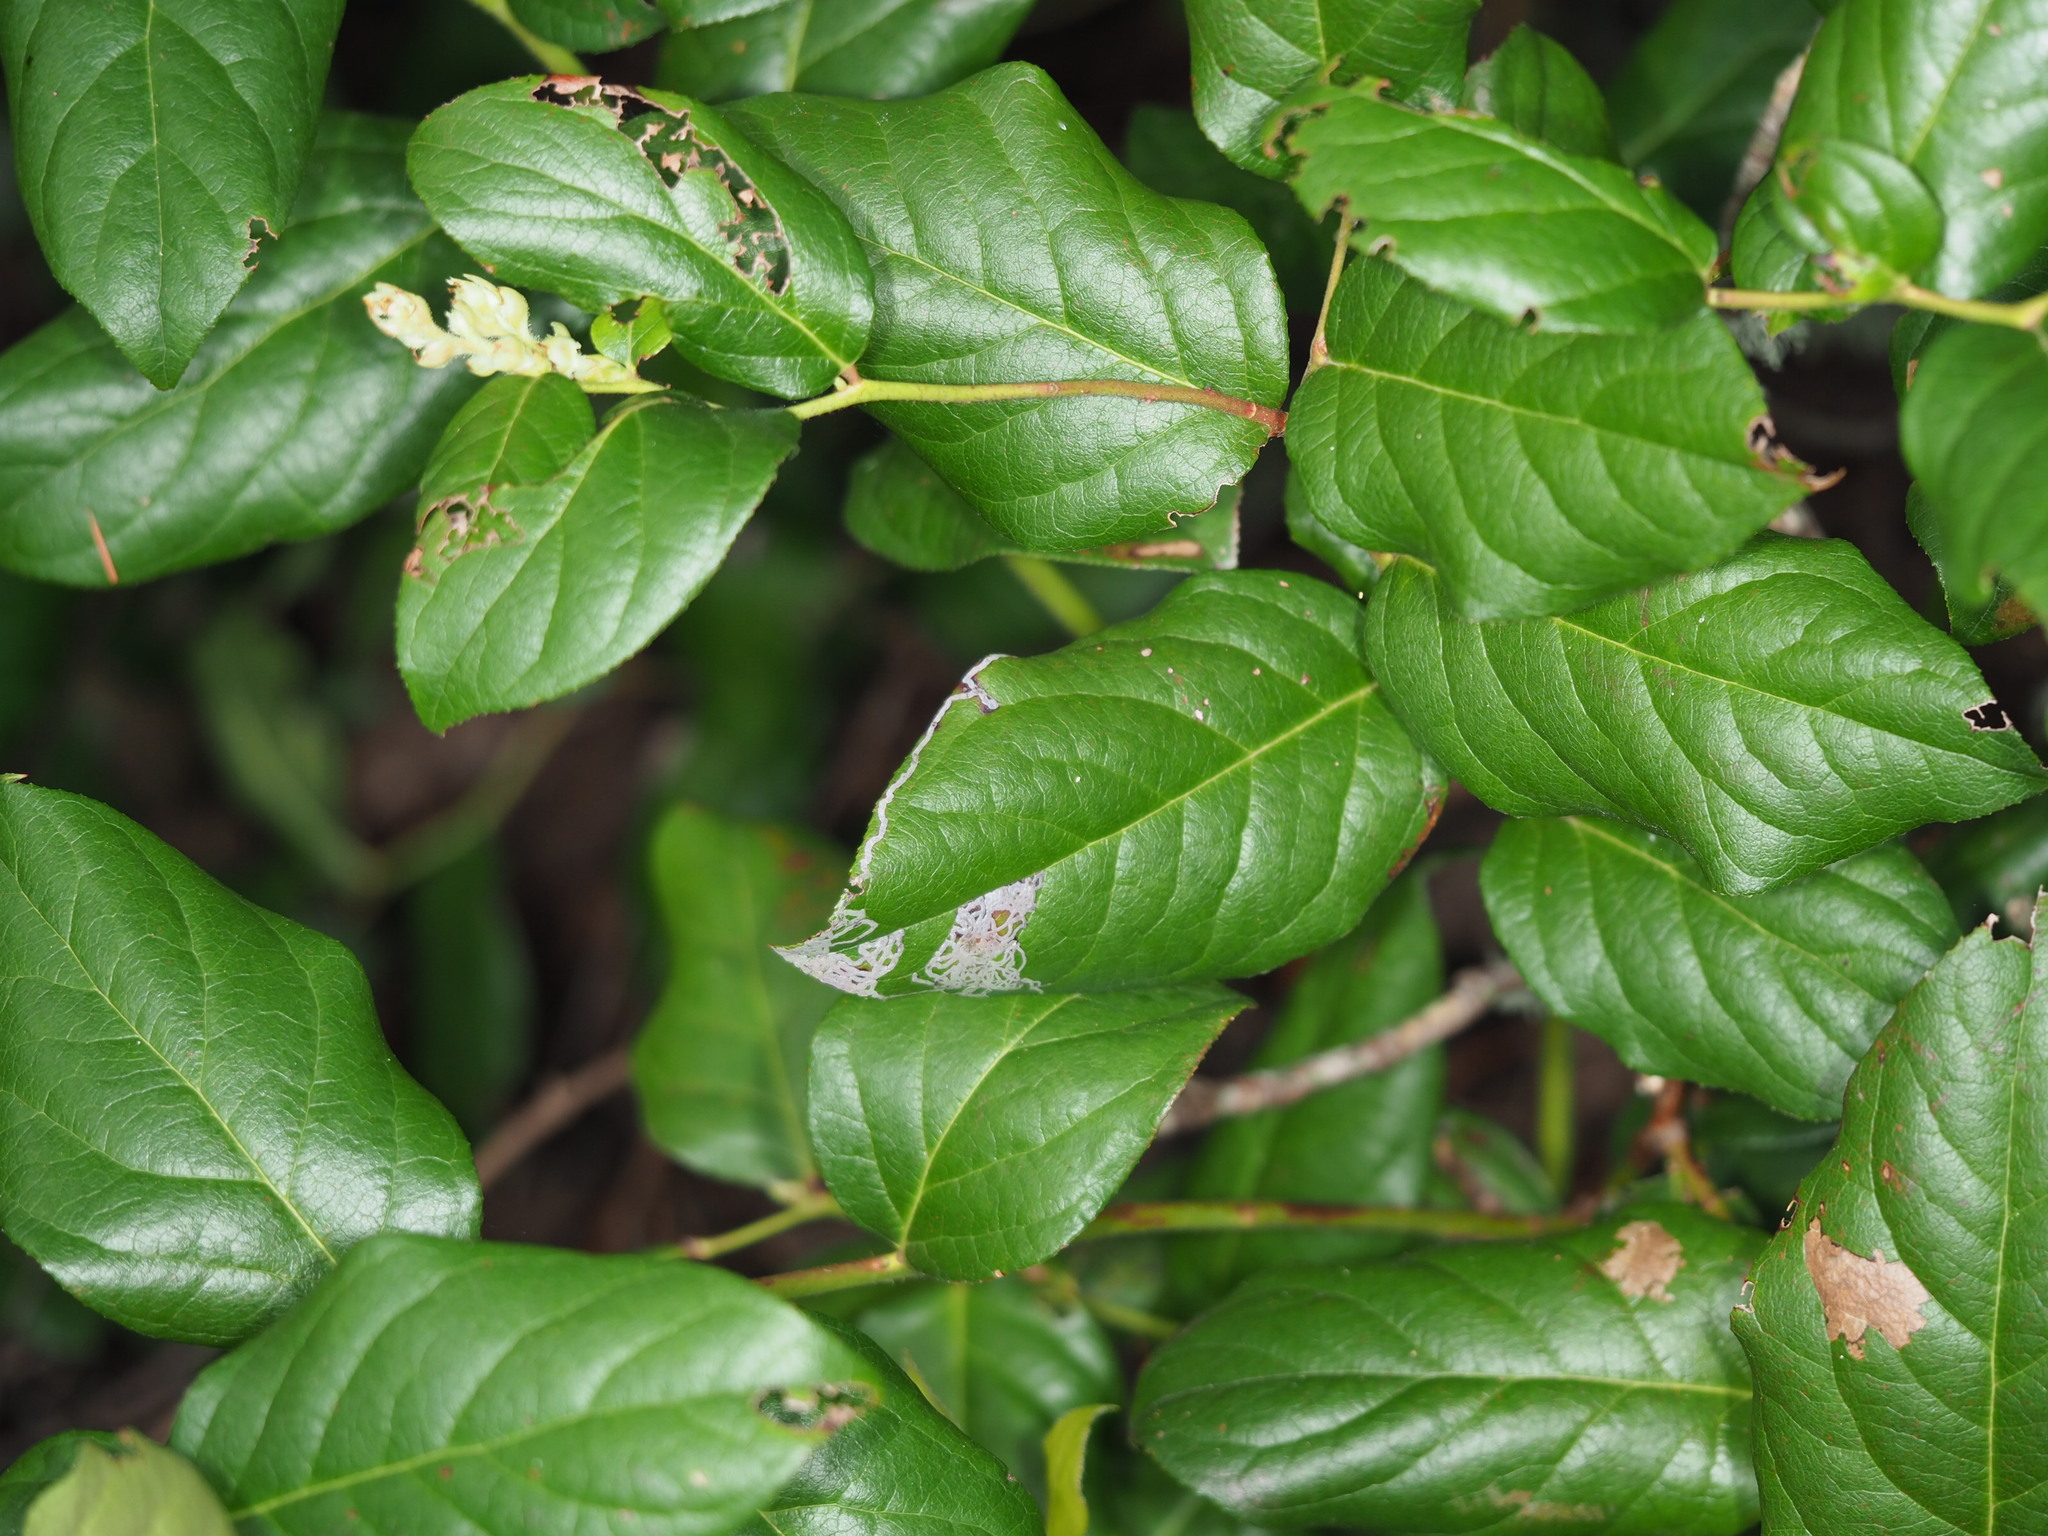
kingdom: Plantae
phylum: Tracheophyta
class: Magnoliopsida
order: Ericales
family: Ericaceae
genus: Gaultheria
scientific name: Gaultheria shallon
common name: Shallon
